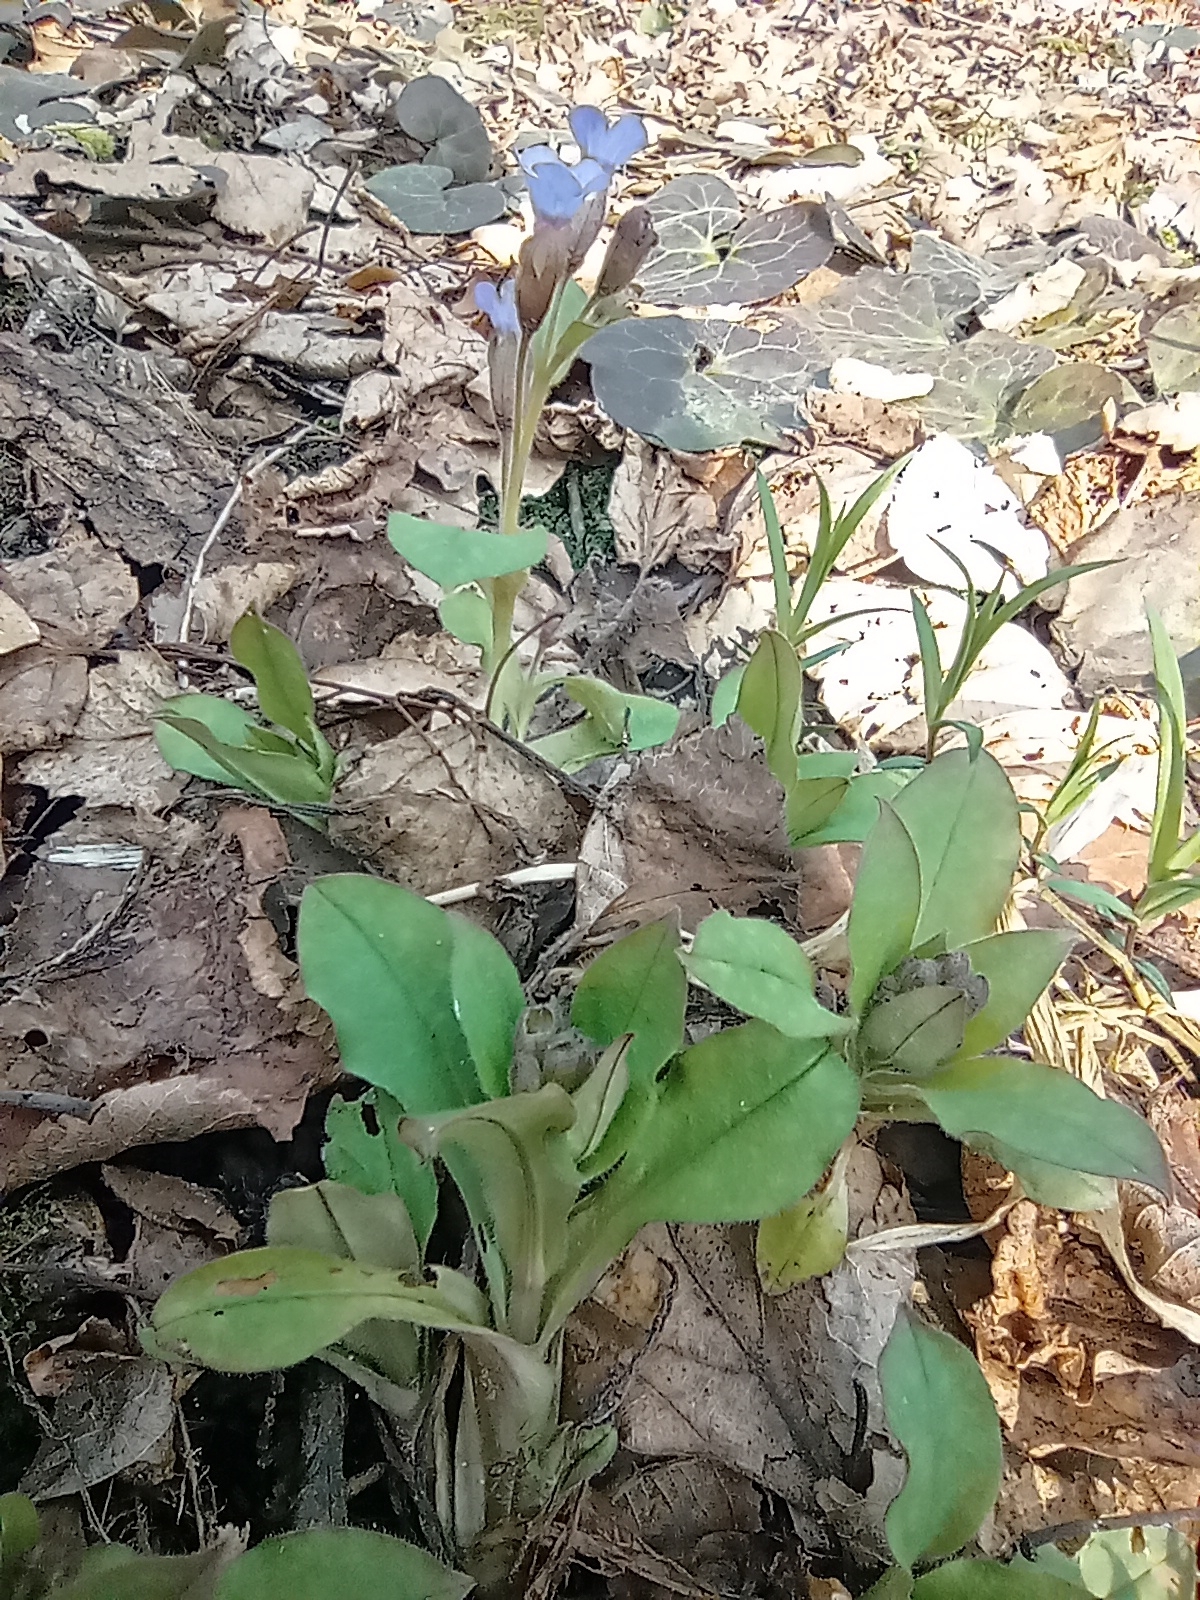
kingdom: Plantae
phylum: Tracheophyta
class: Magnoliopsida
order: Boraginales
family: Boraginaceae
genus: Pulmonaria
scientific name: Pulmonaria obscura
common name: Suffolk lungwort
